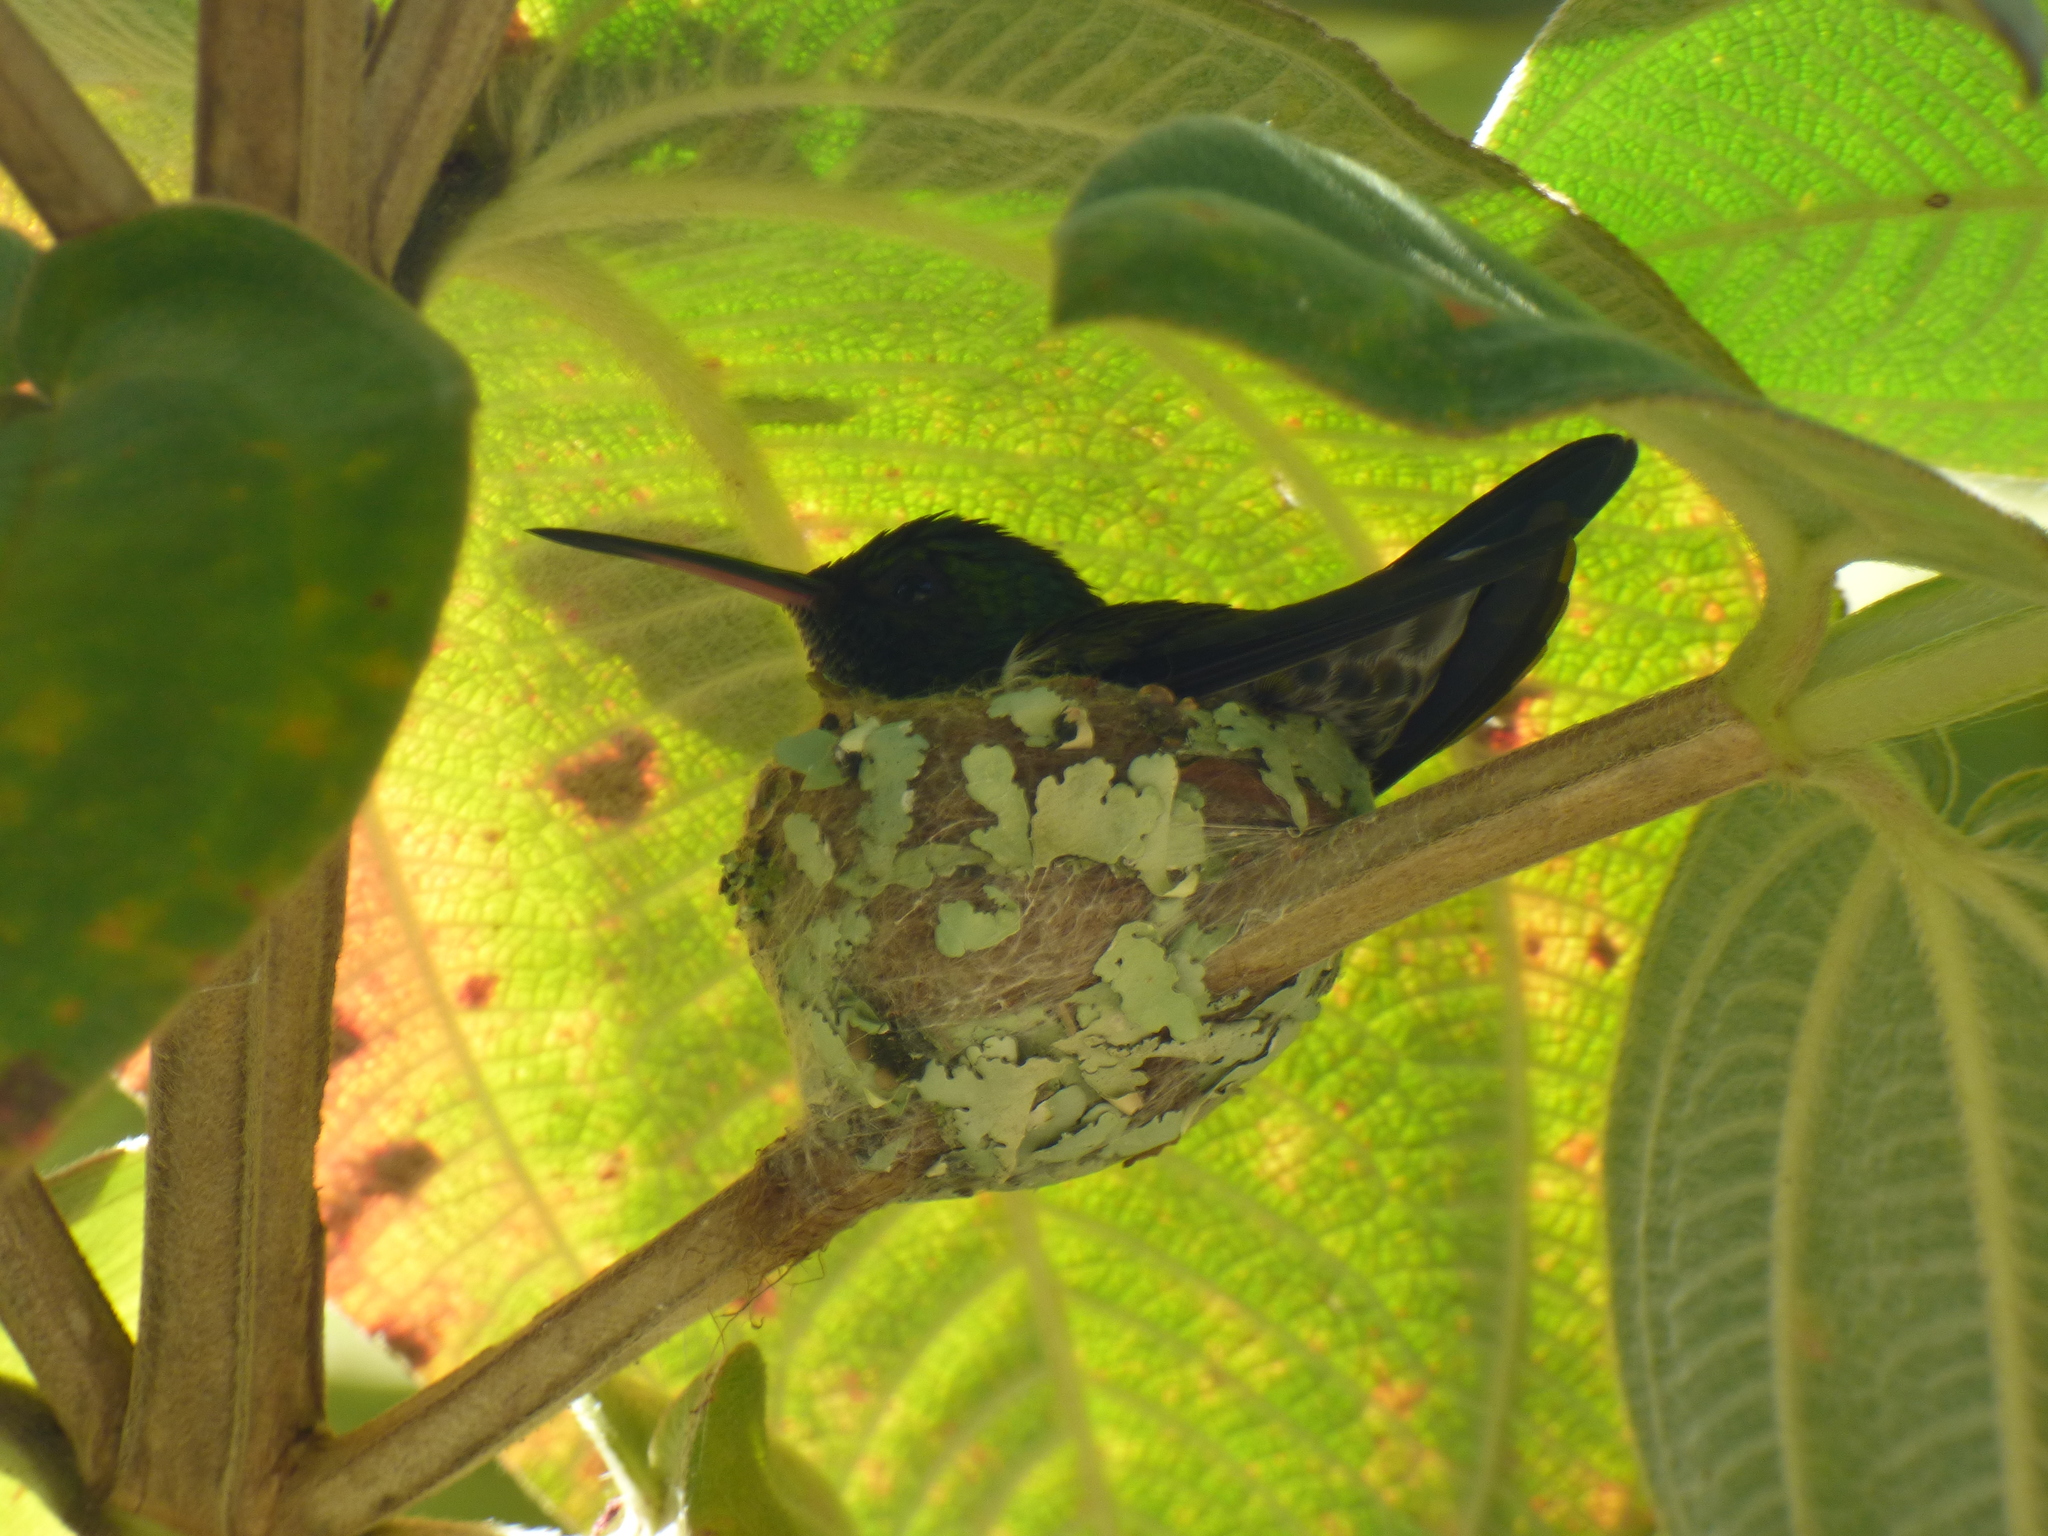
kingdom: Animalia
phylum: Chordata
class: Aves
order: Apodiformes
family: Trochilidae
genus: Saucerottia
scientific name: Saucerottia saucerottei
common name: Steely-vented hummingbird
